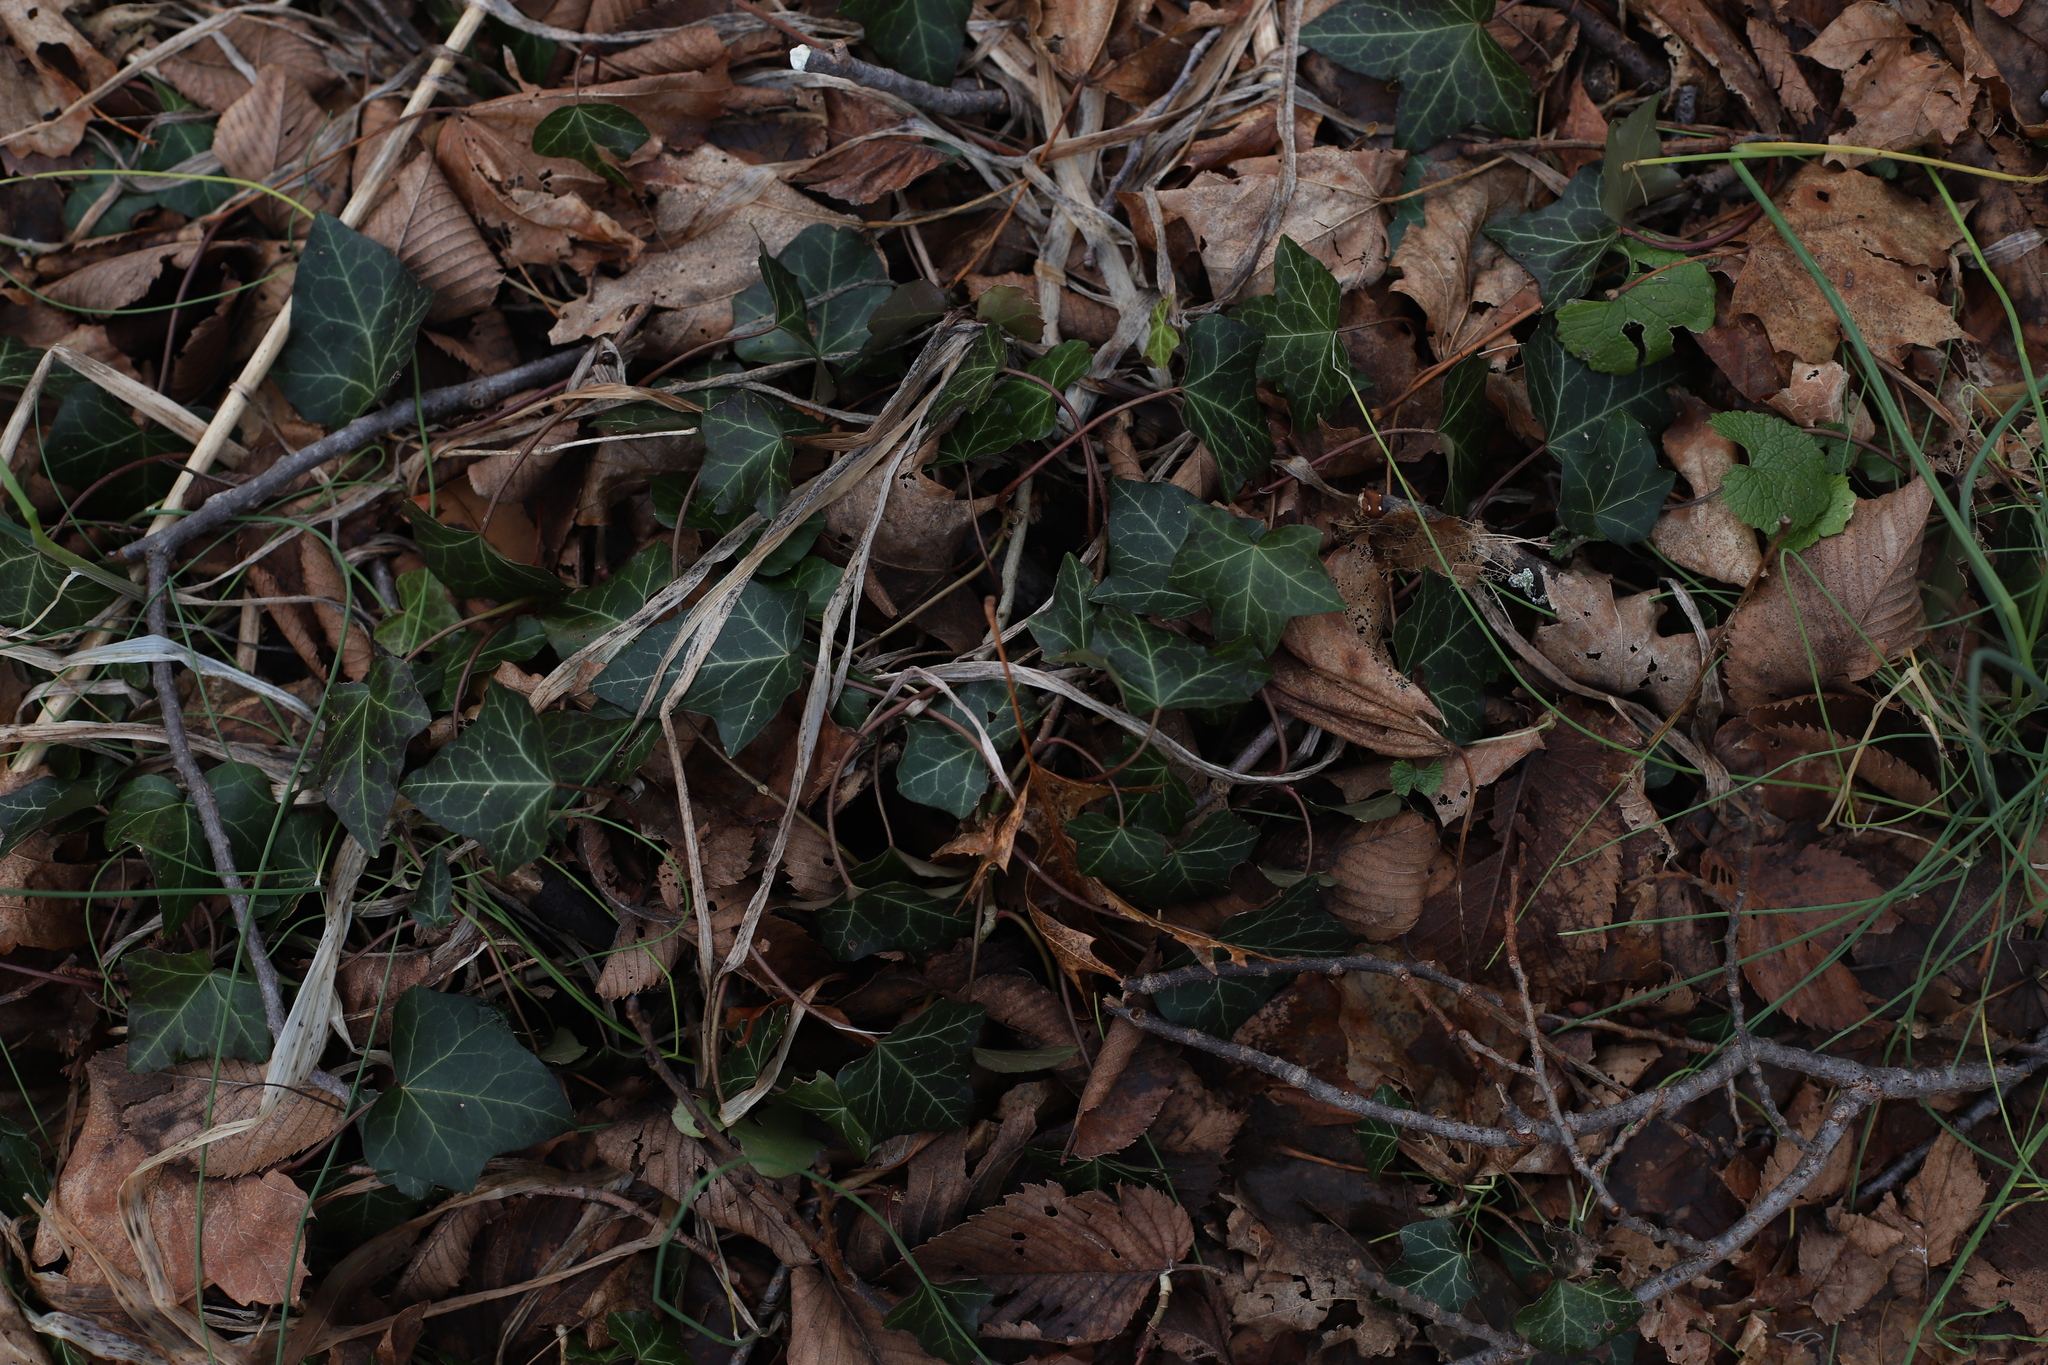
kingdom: Plantae
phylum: Tracheophyta
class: Magnoliopsida
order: Apiales
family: Araliaceae
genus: Hedera
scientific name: Hedera helix
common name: Ivy
